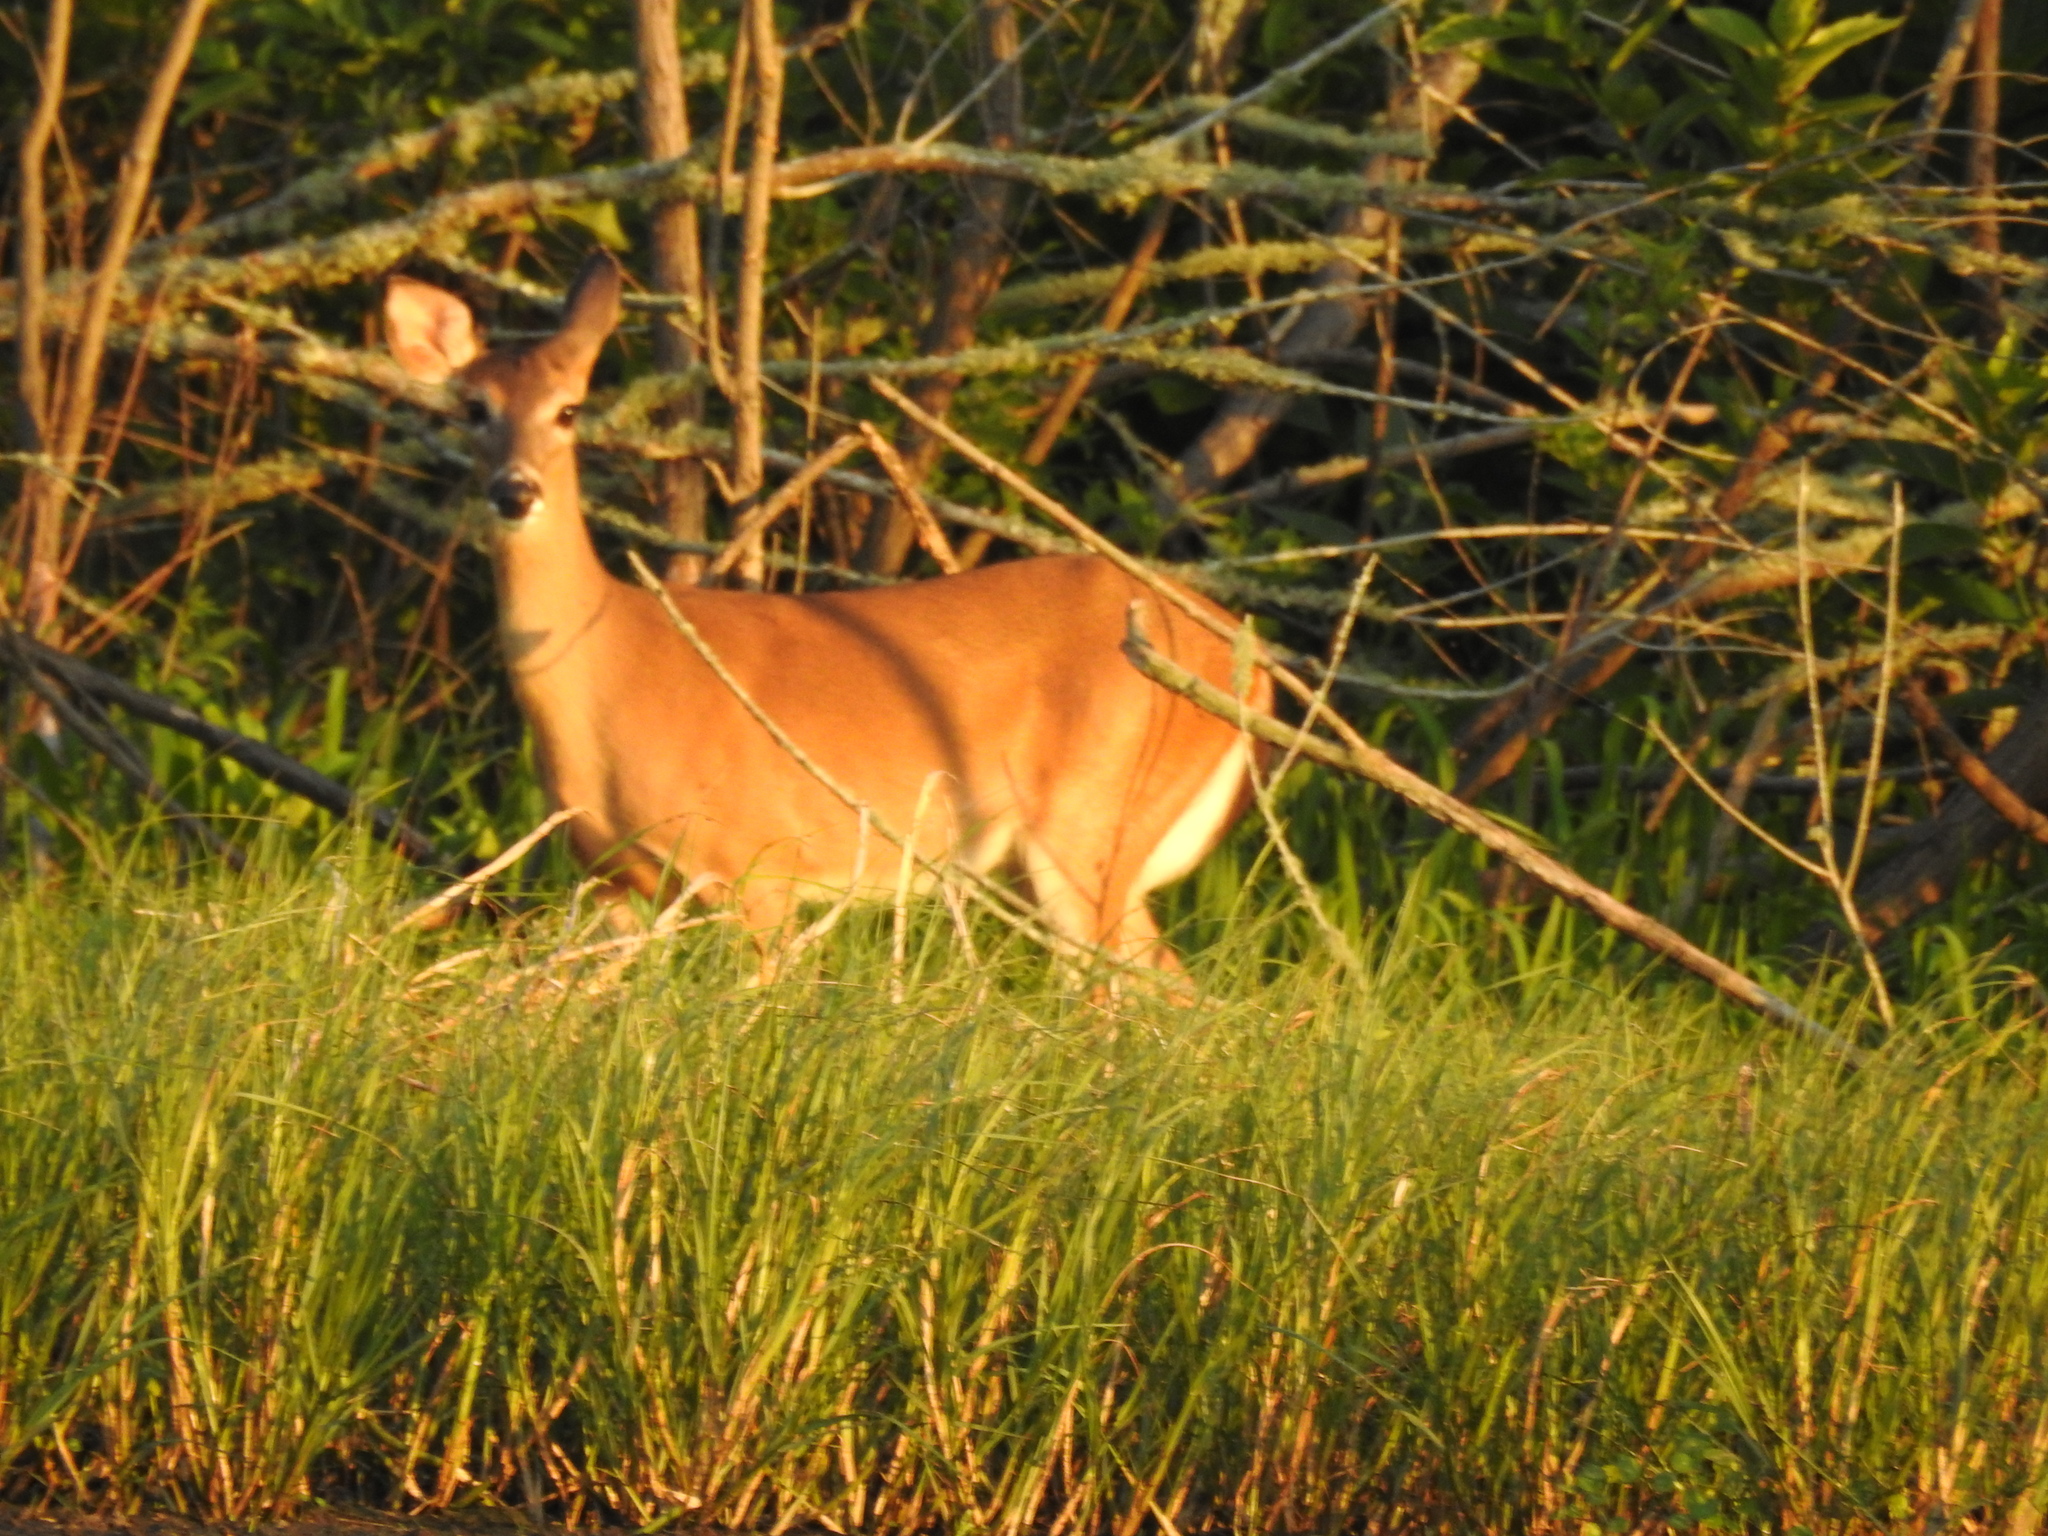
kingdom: Animalia
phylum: Chordata
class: Mammalia
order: Artiodactyla
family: Cervidae
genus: Odocoileus
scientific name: Odocoileus virginianus
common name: White-tailed deer
